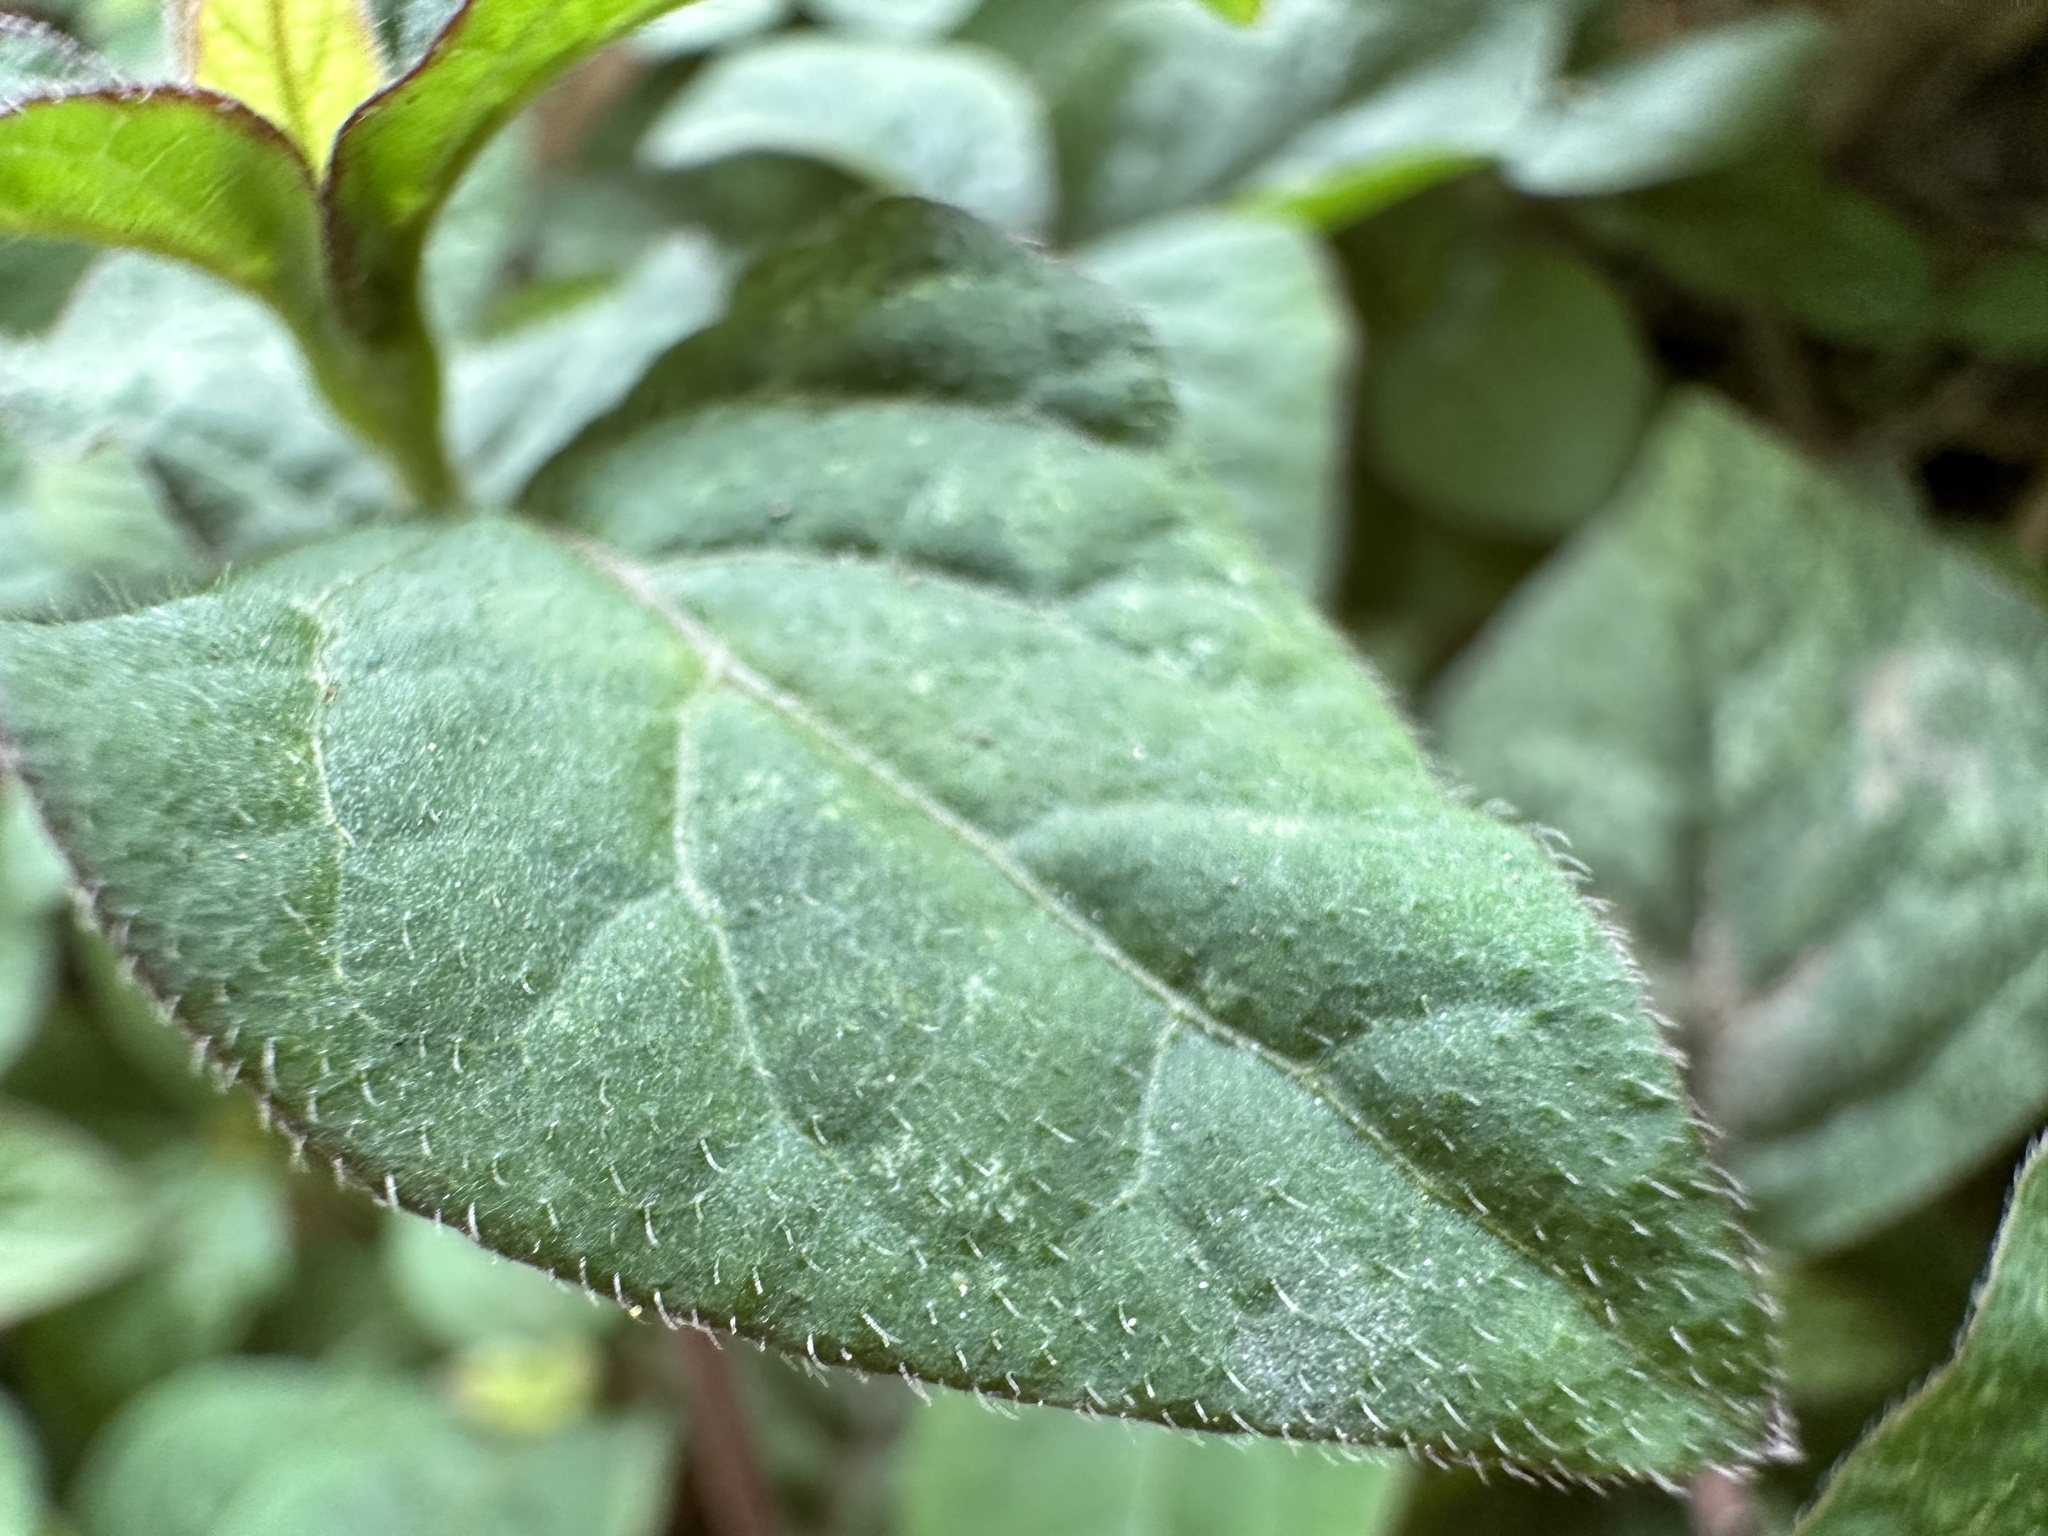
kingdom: Plantae
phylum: Tracheophyta
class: Magnoliopsida
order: Caryophyllales
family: Amaranthaceae
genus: Cyathula
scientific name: Cyathula prostrata
